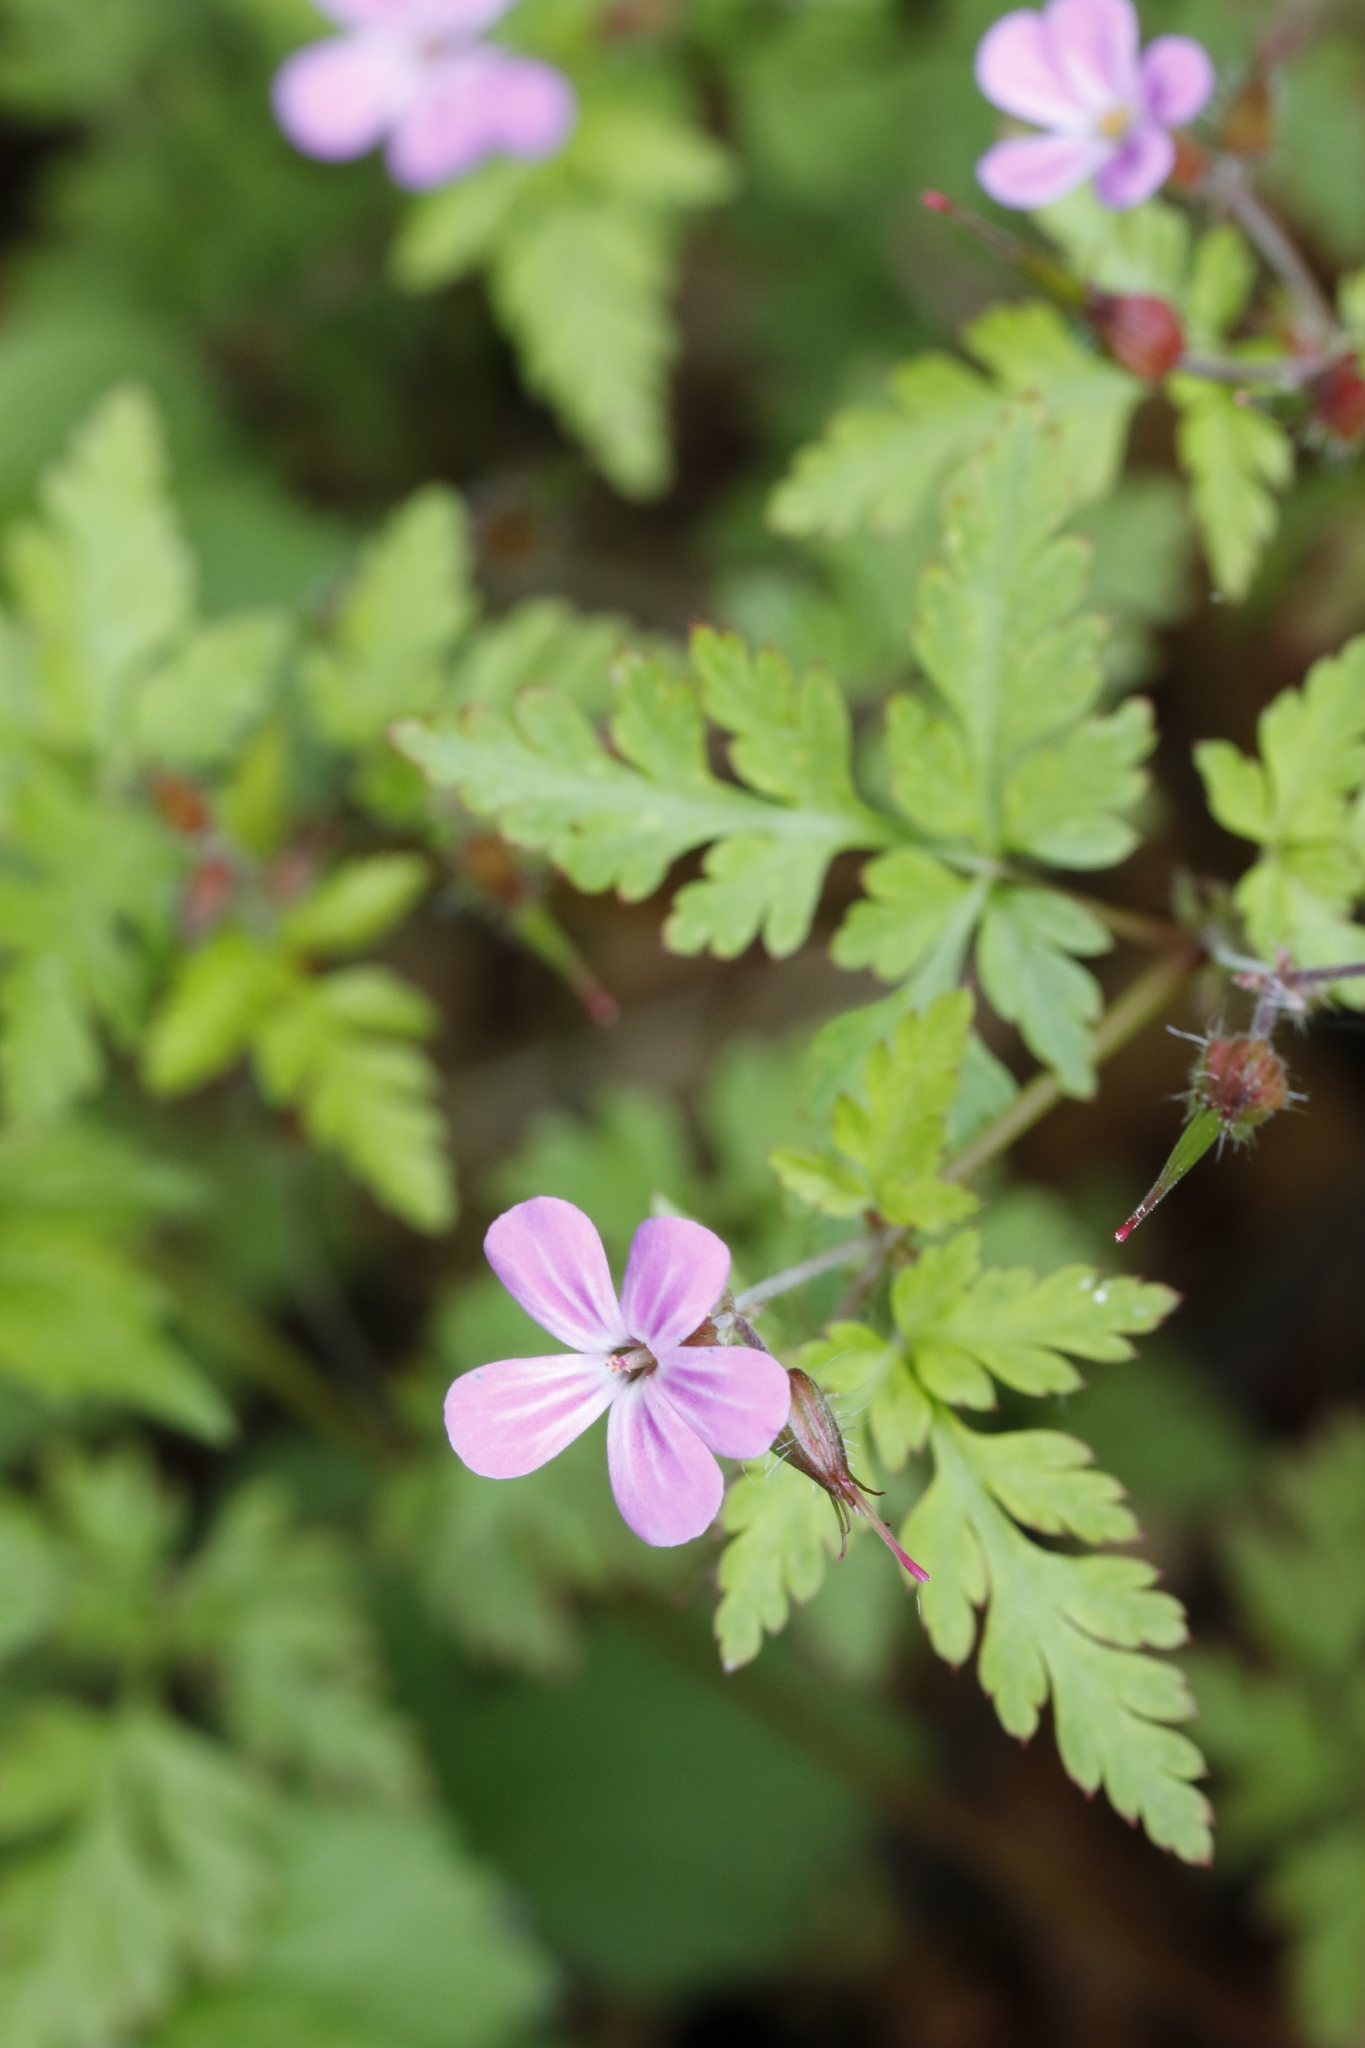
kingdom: Plantae
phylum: Tracheophyta
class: Magnoliopsida
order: Geraniales
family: Geraniaceae
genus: Geranium
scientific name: Geranium robertianum
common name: Herb-robert
